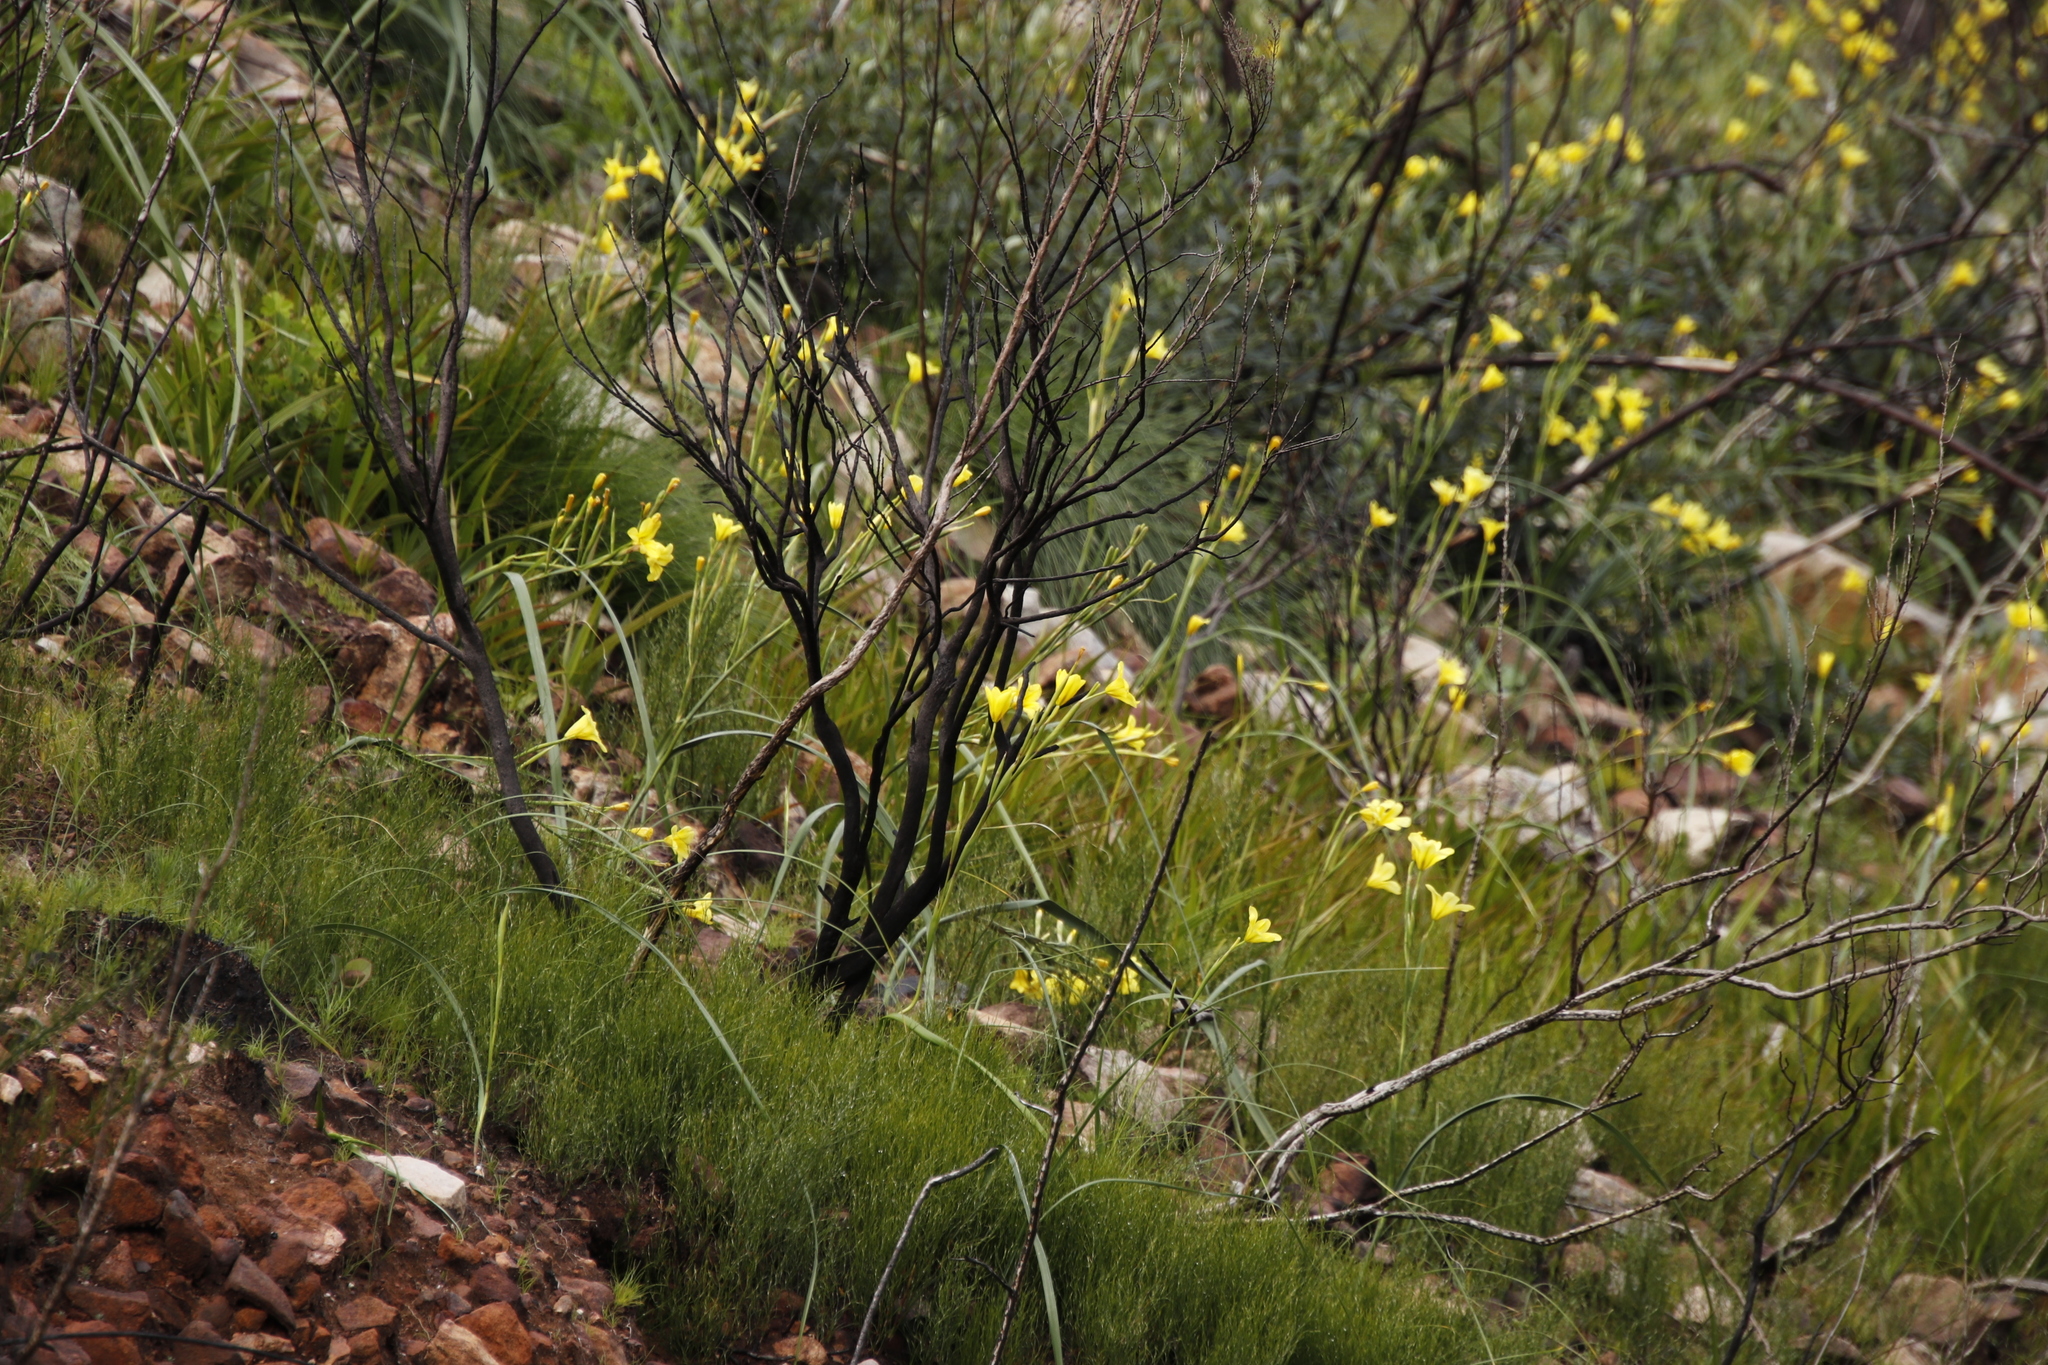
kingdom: Plantae
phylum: Tracheophyta
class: Liliopsida
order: Asparagales
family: Iridaceae
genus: Moraea
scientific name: Moraea ochroleuca
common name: Red tulp
